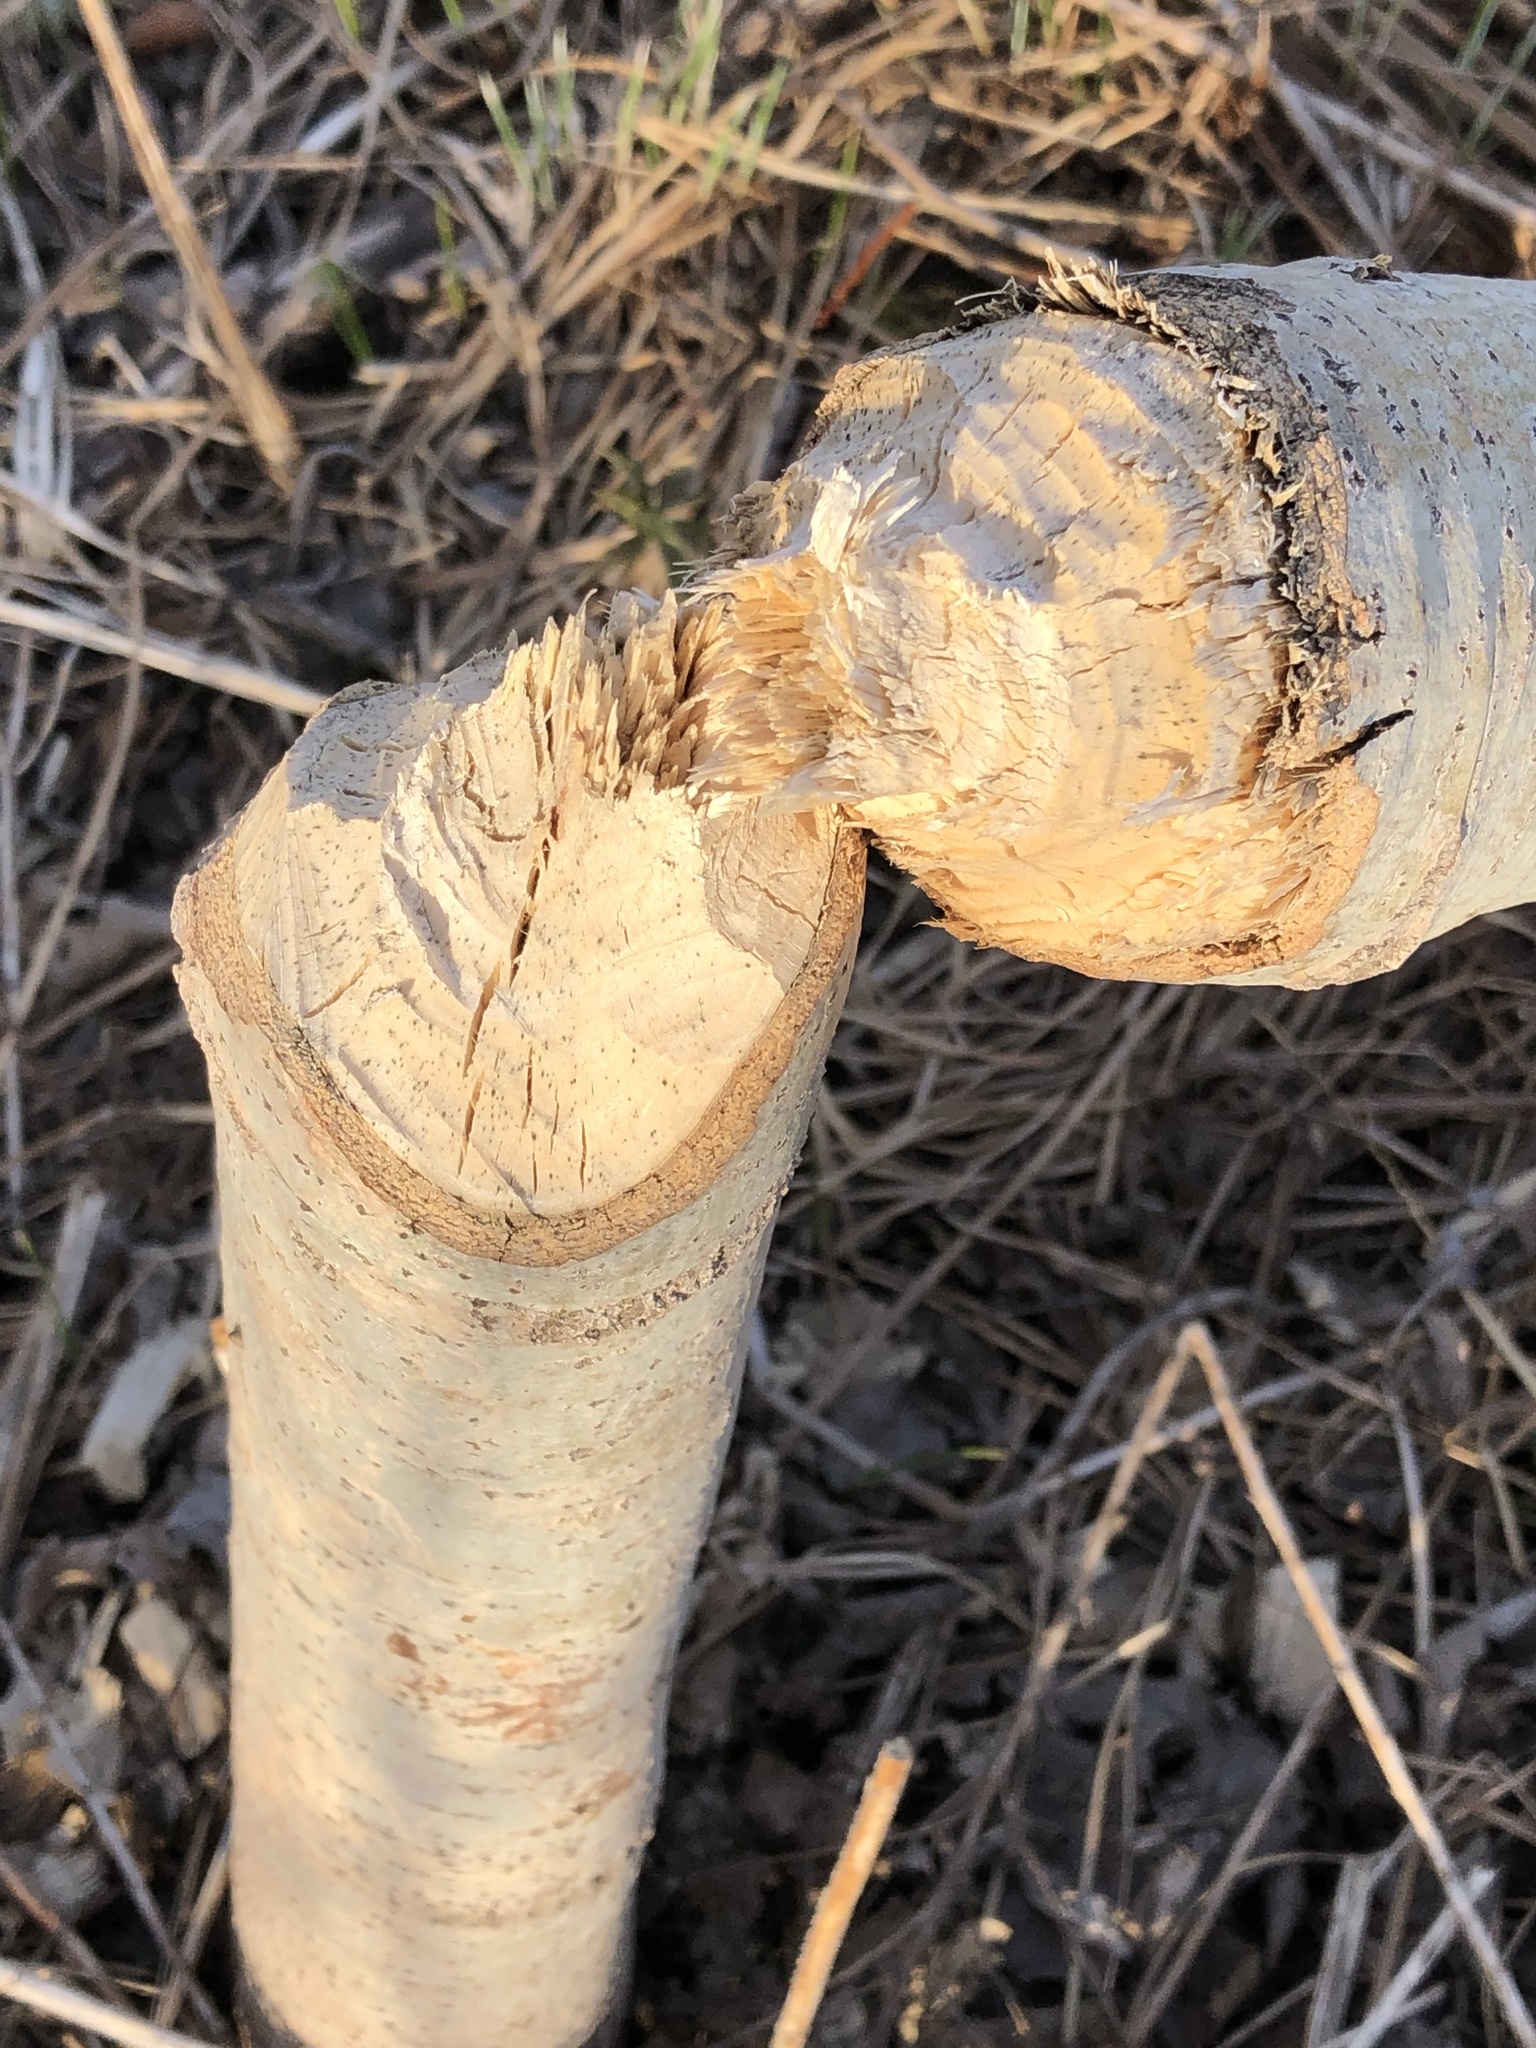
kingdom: Animalia
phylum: Chordata
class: Mammalia
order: Rodentia
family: Castoridae
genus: Castor
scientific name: Castor canadensis
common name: American beaver
